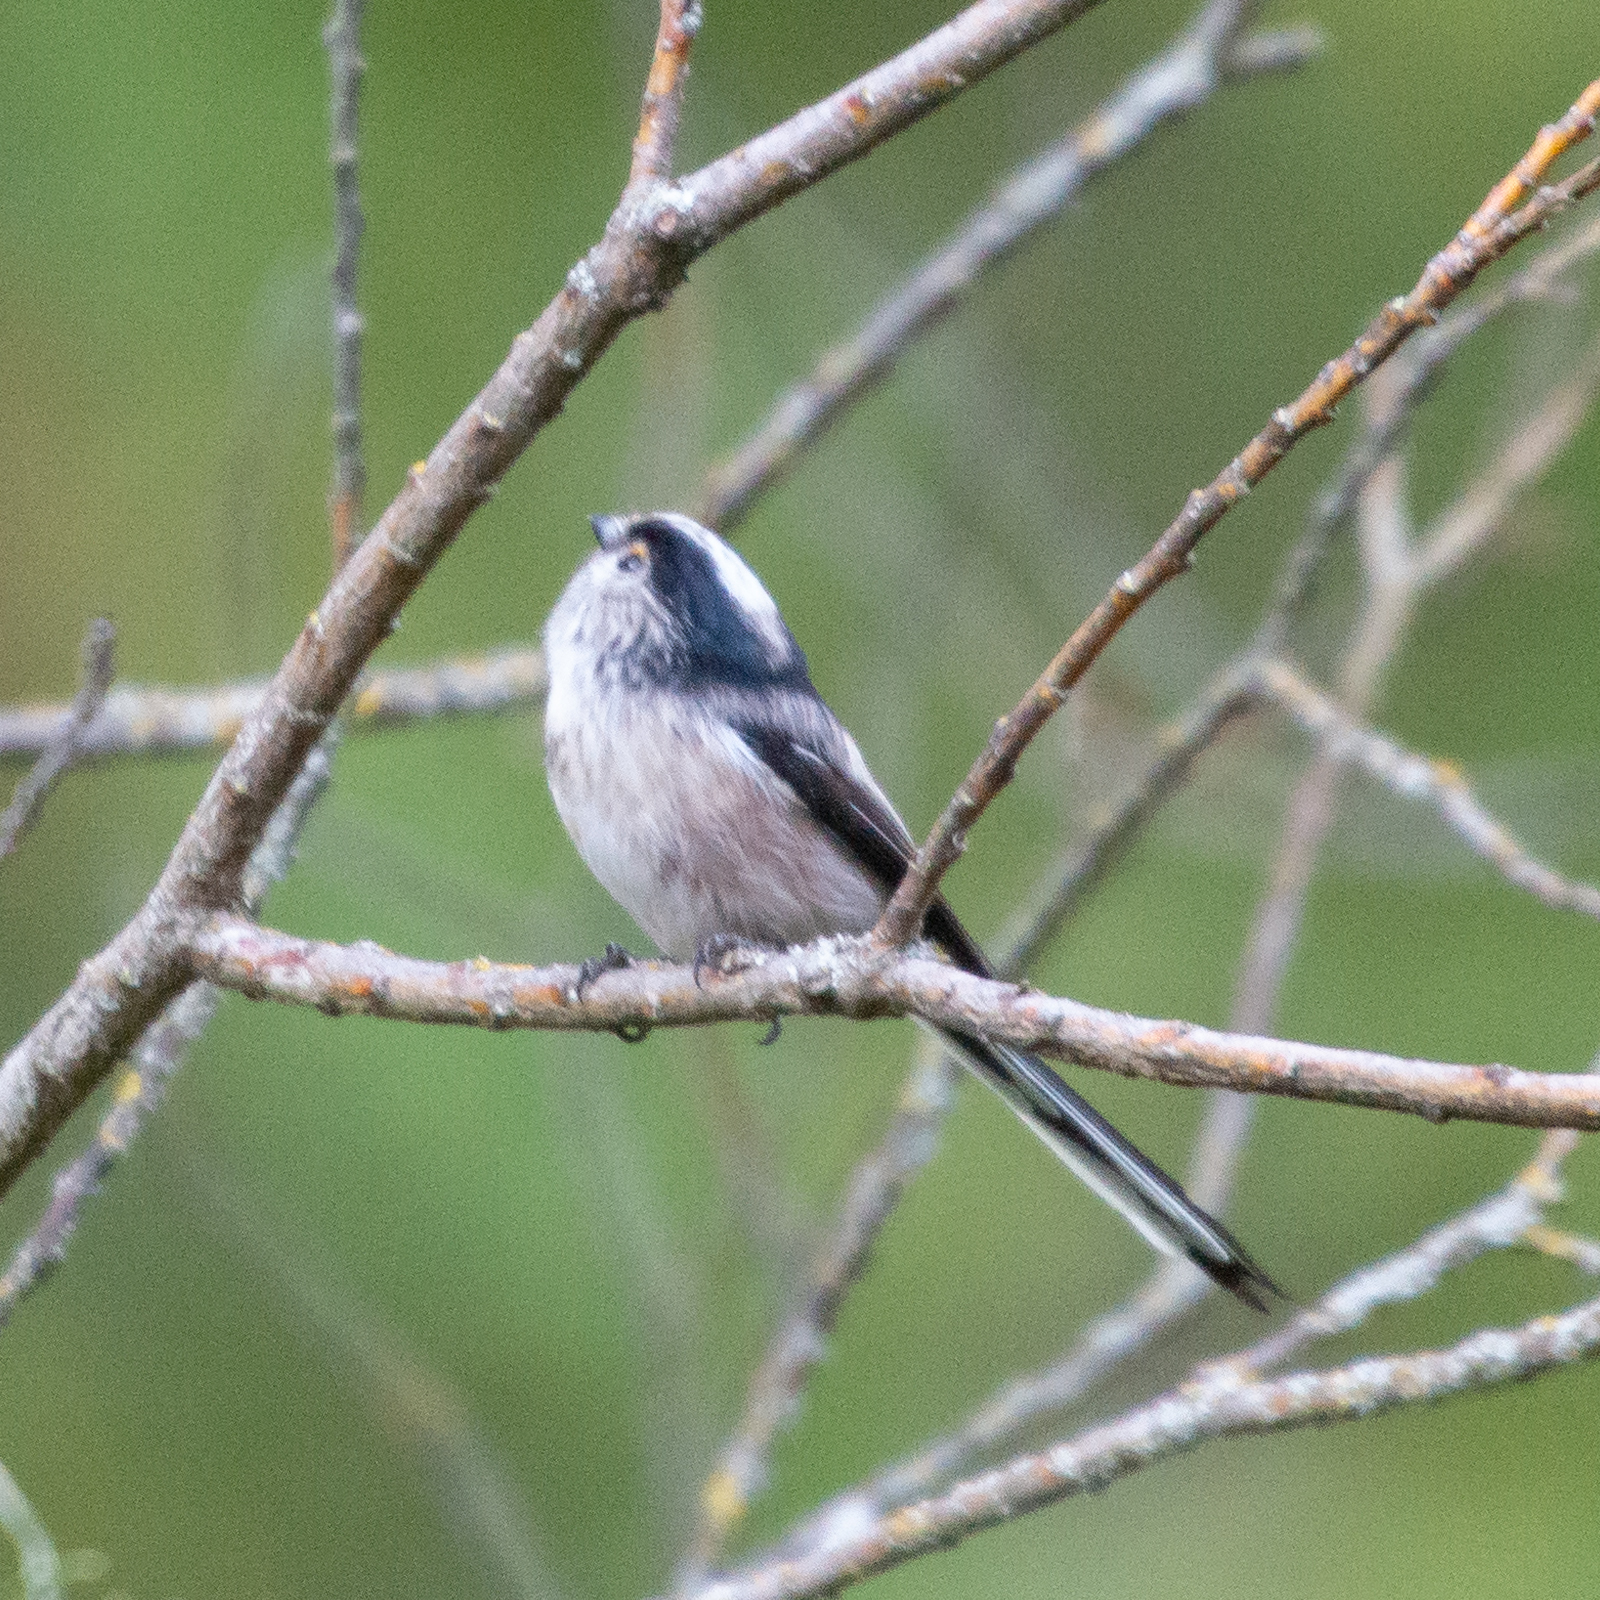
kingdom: Animalia
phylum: Chordata
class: Aves
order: Passeriformes
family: Aegithalidae
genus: Aegithalos
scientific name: Aegithalos caudatus
